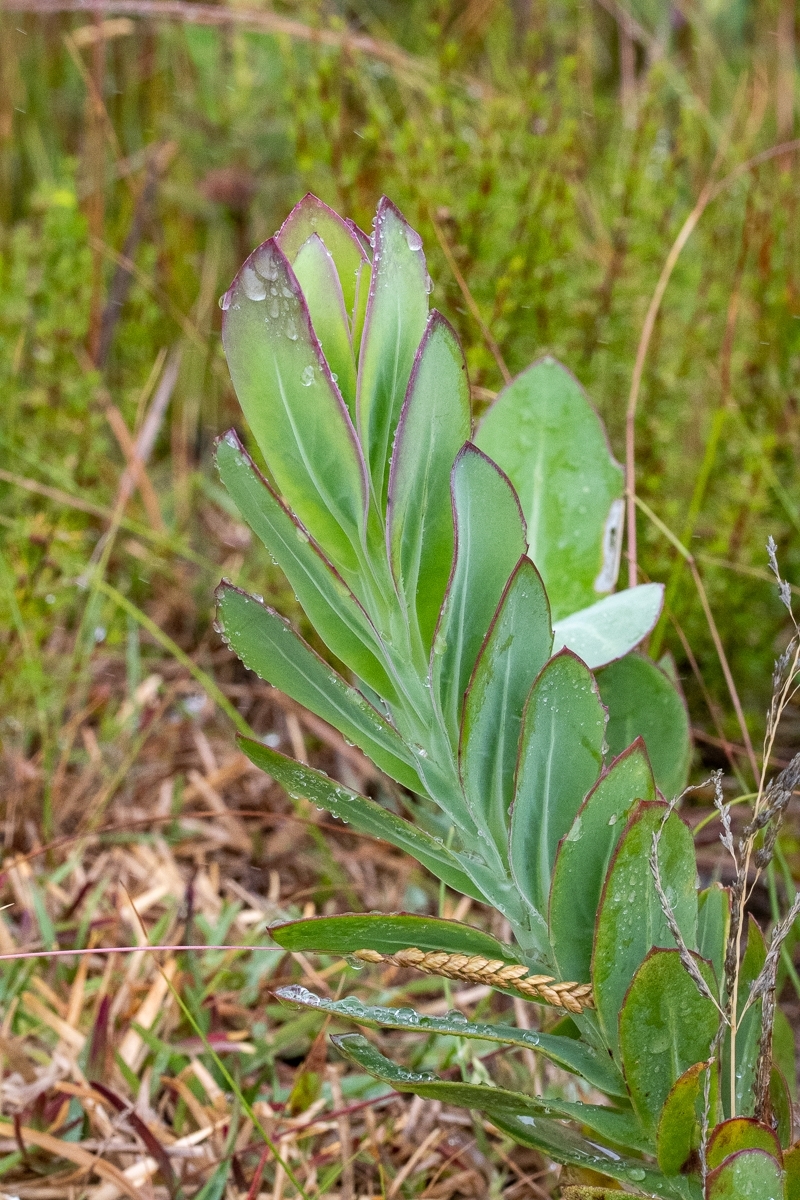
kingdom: Plantae
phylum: Tracheophyta
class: Magnoliopsida
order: Asterales
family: Asteraceae
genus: Othonna
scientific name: Othonna quinquedentata
